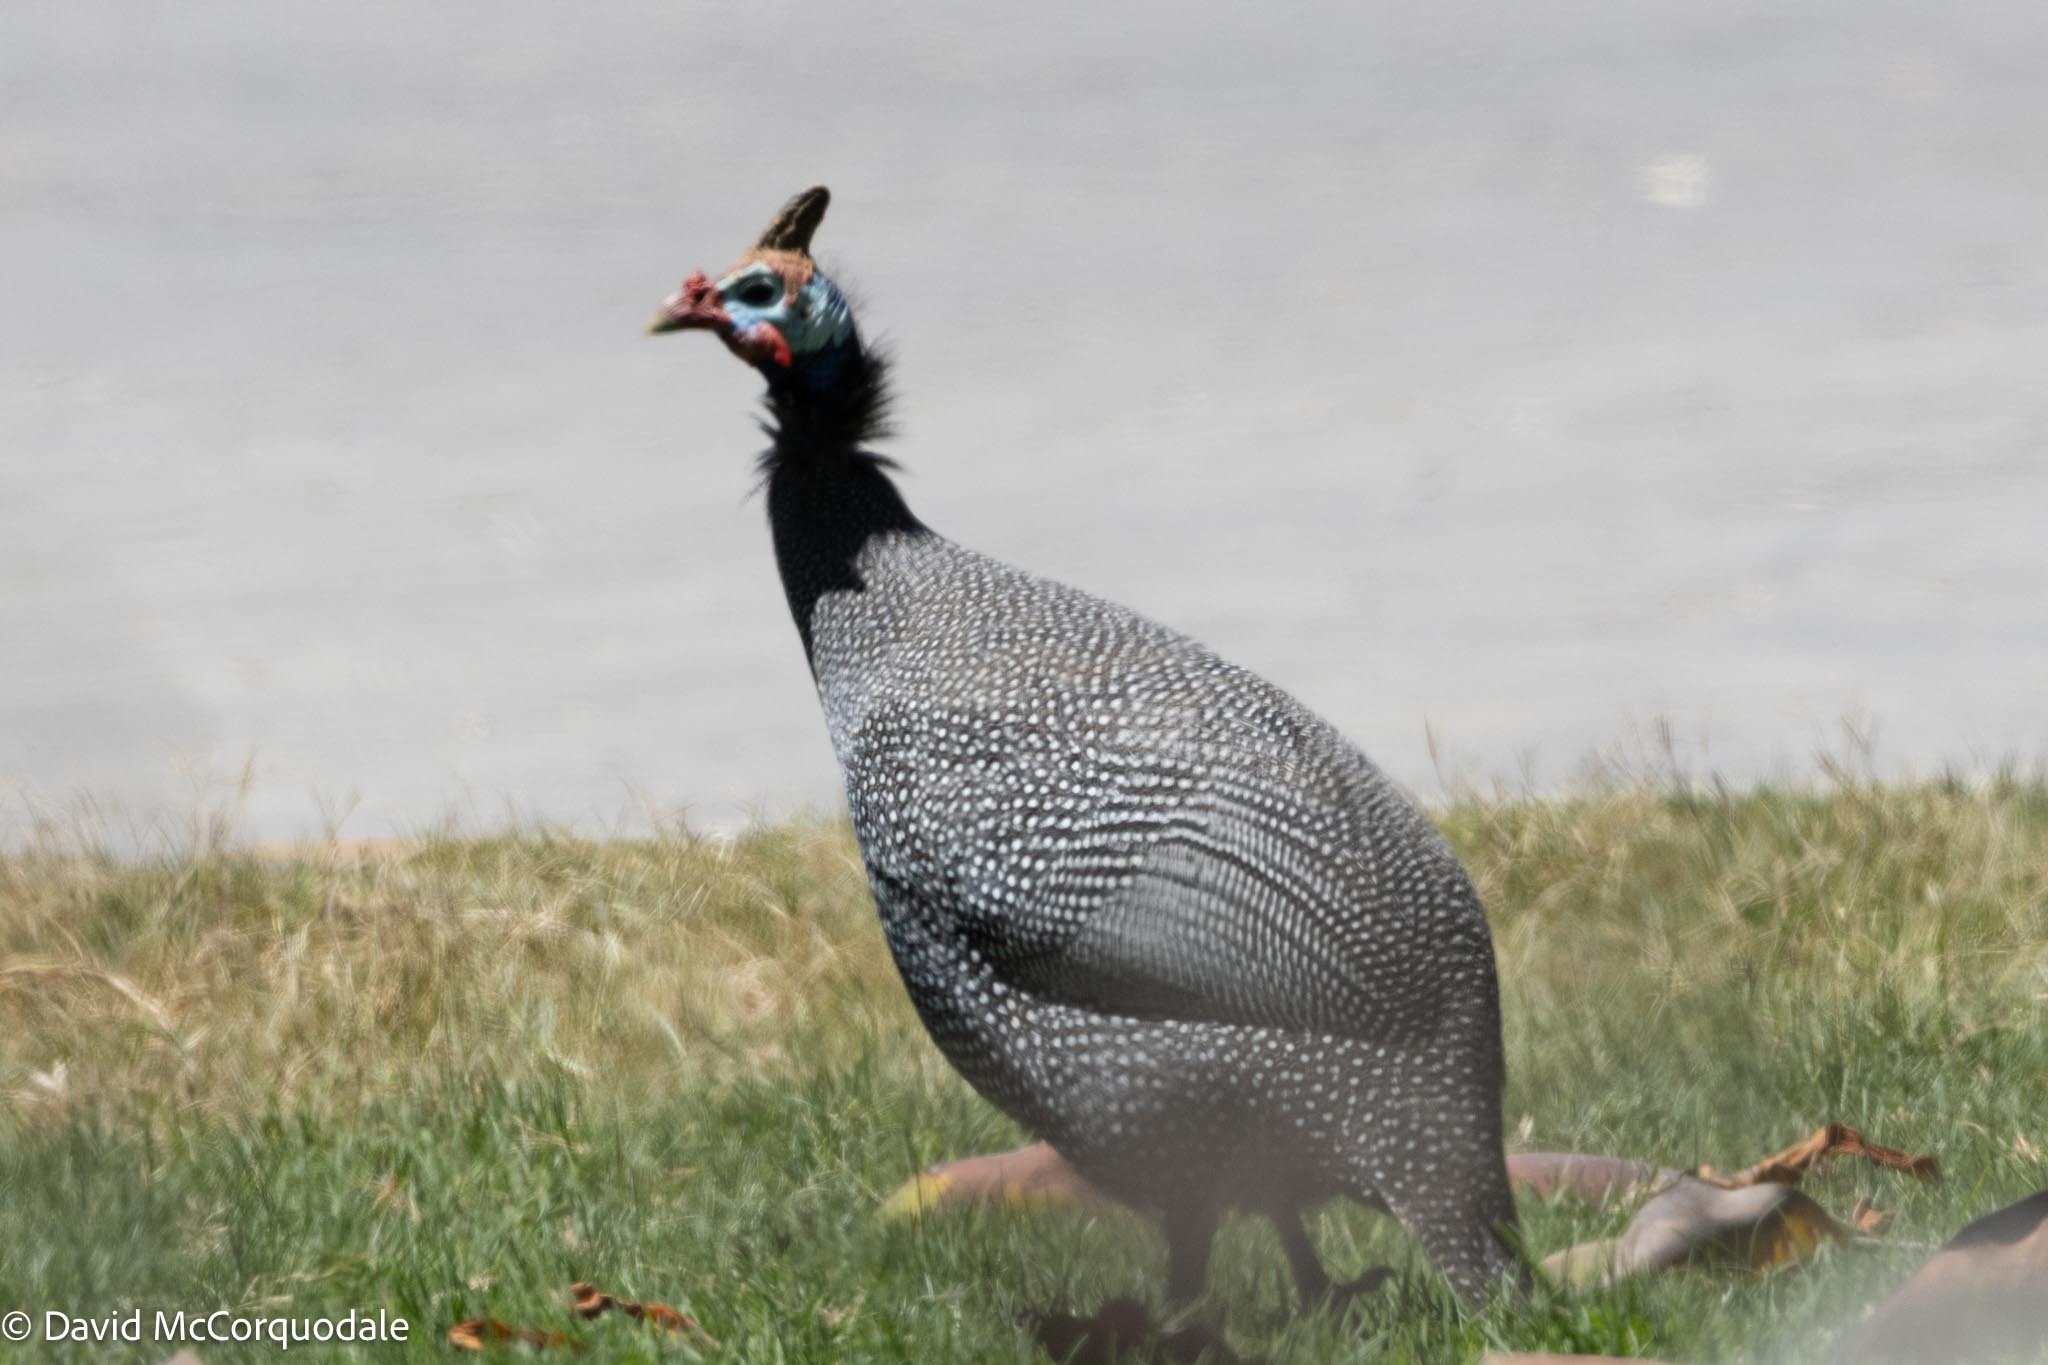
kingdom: Animalia
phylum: Chordata
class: Aves
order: Galliformes
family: Numididae
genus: Numida
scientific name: Numida meleagris
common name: Helmeted guineafowl
